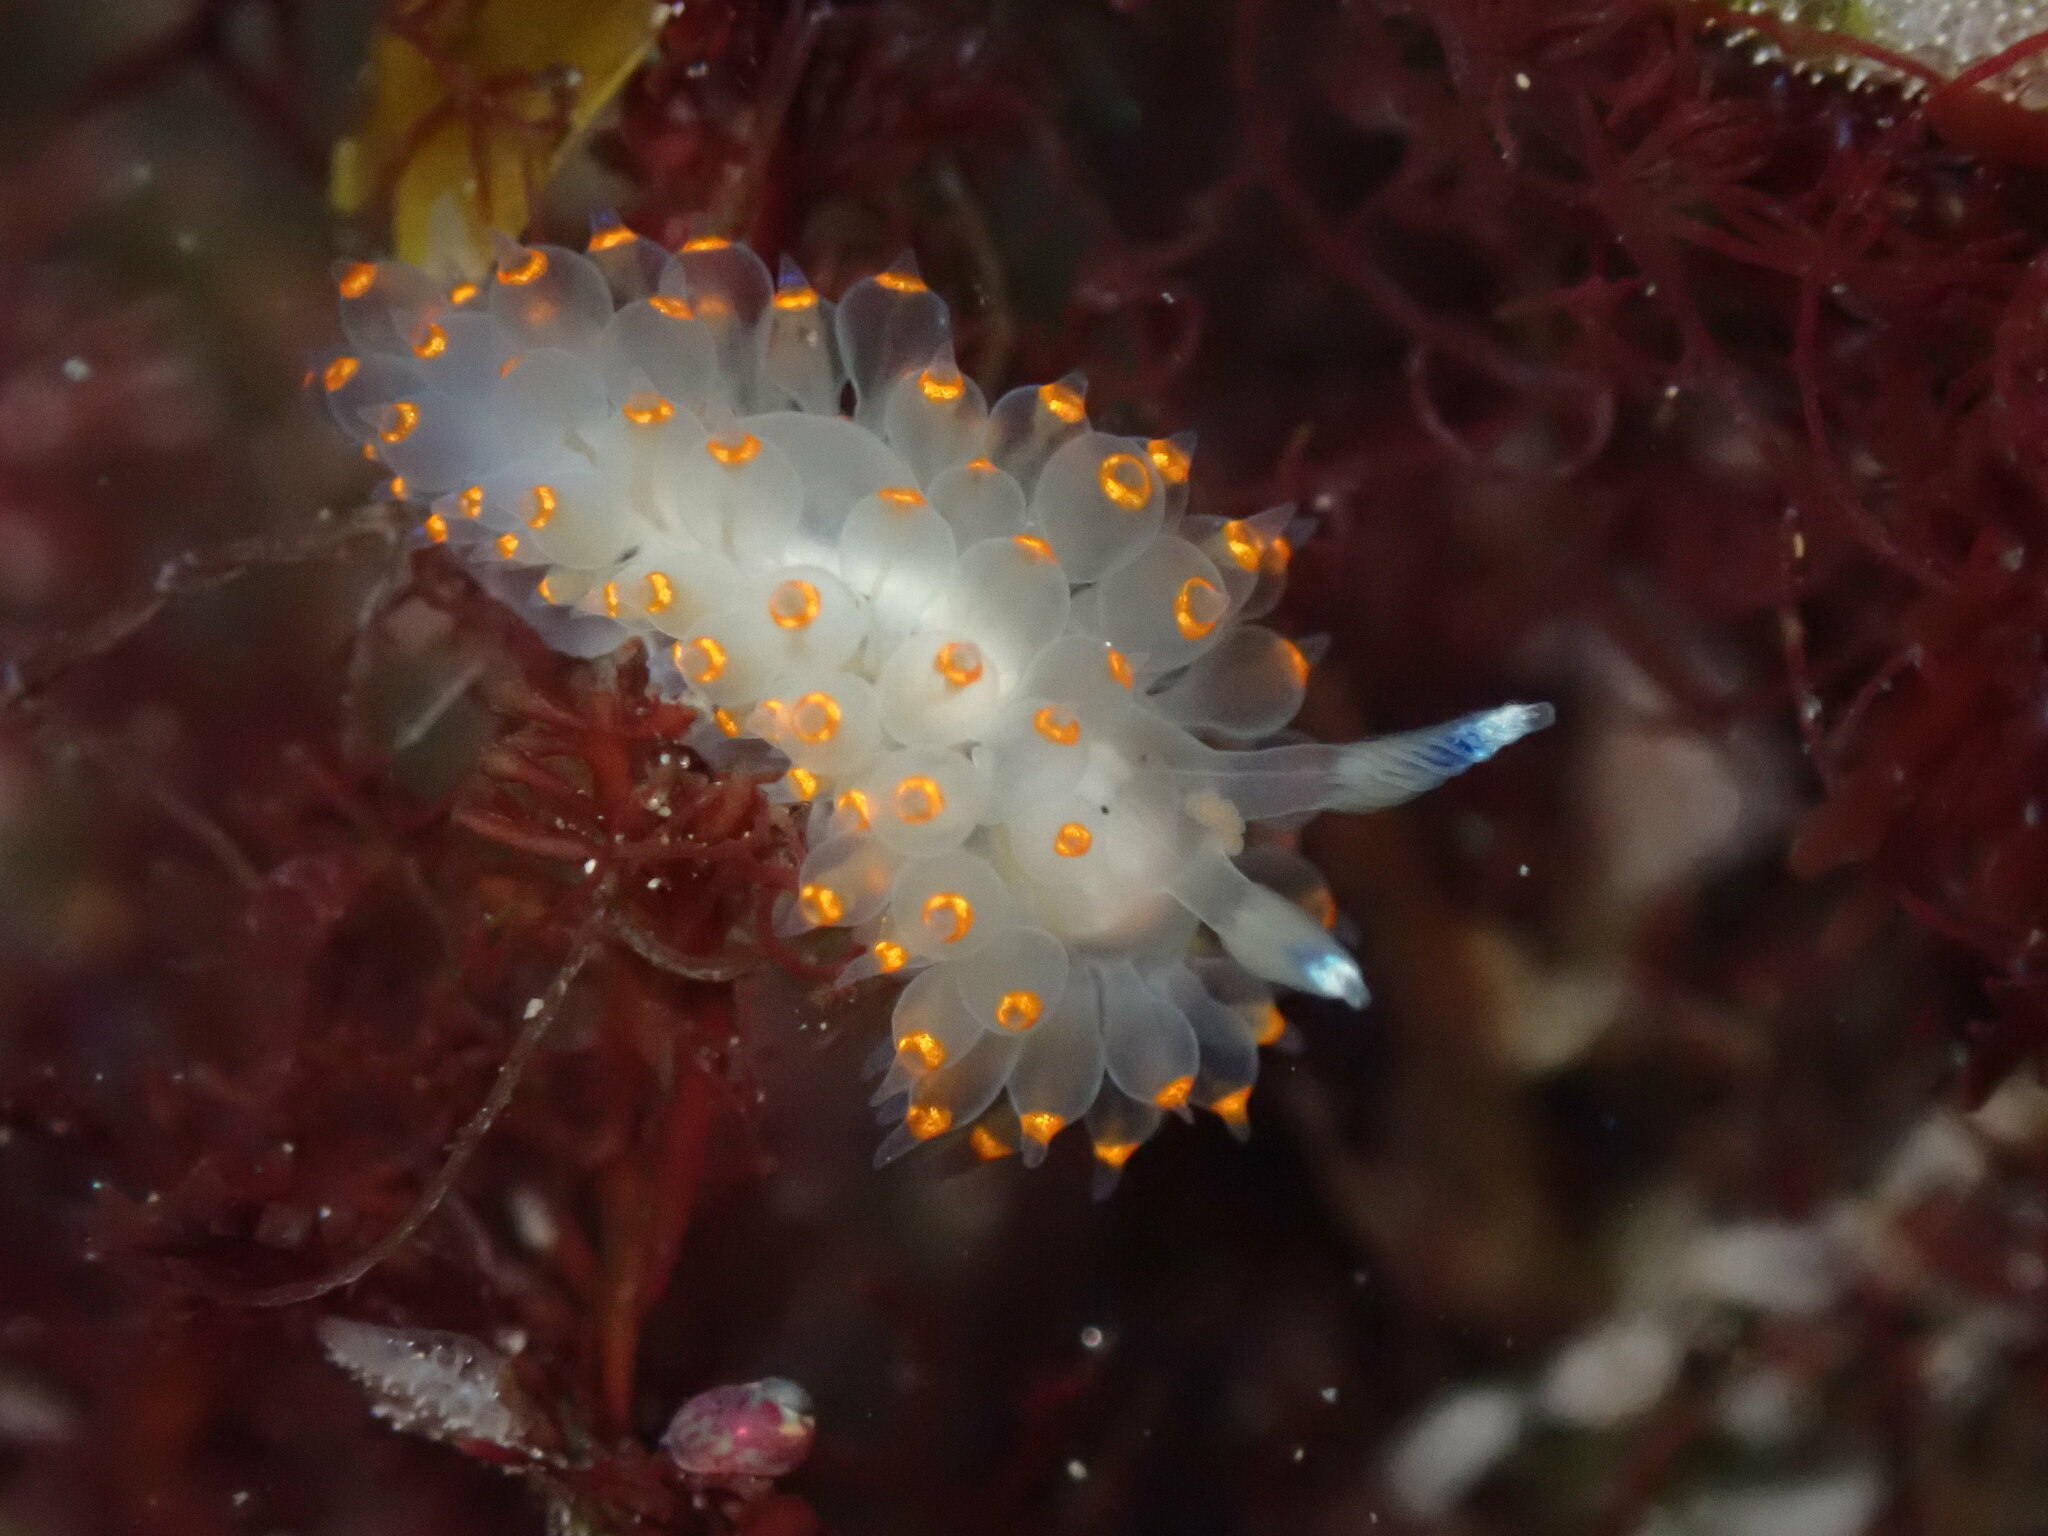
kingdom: Animalia
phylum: Mollusca
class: Gastropoda
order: Nudibranchia
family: Janolidae
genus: Antiopella
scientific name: Antiopella barbarensis
